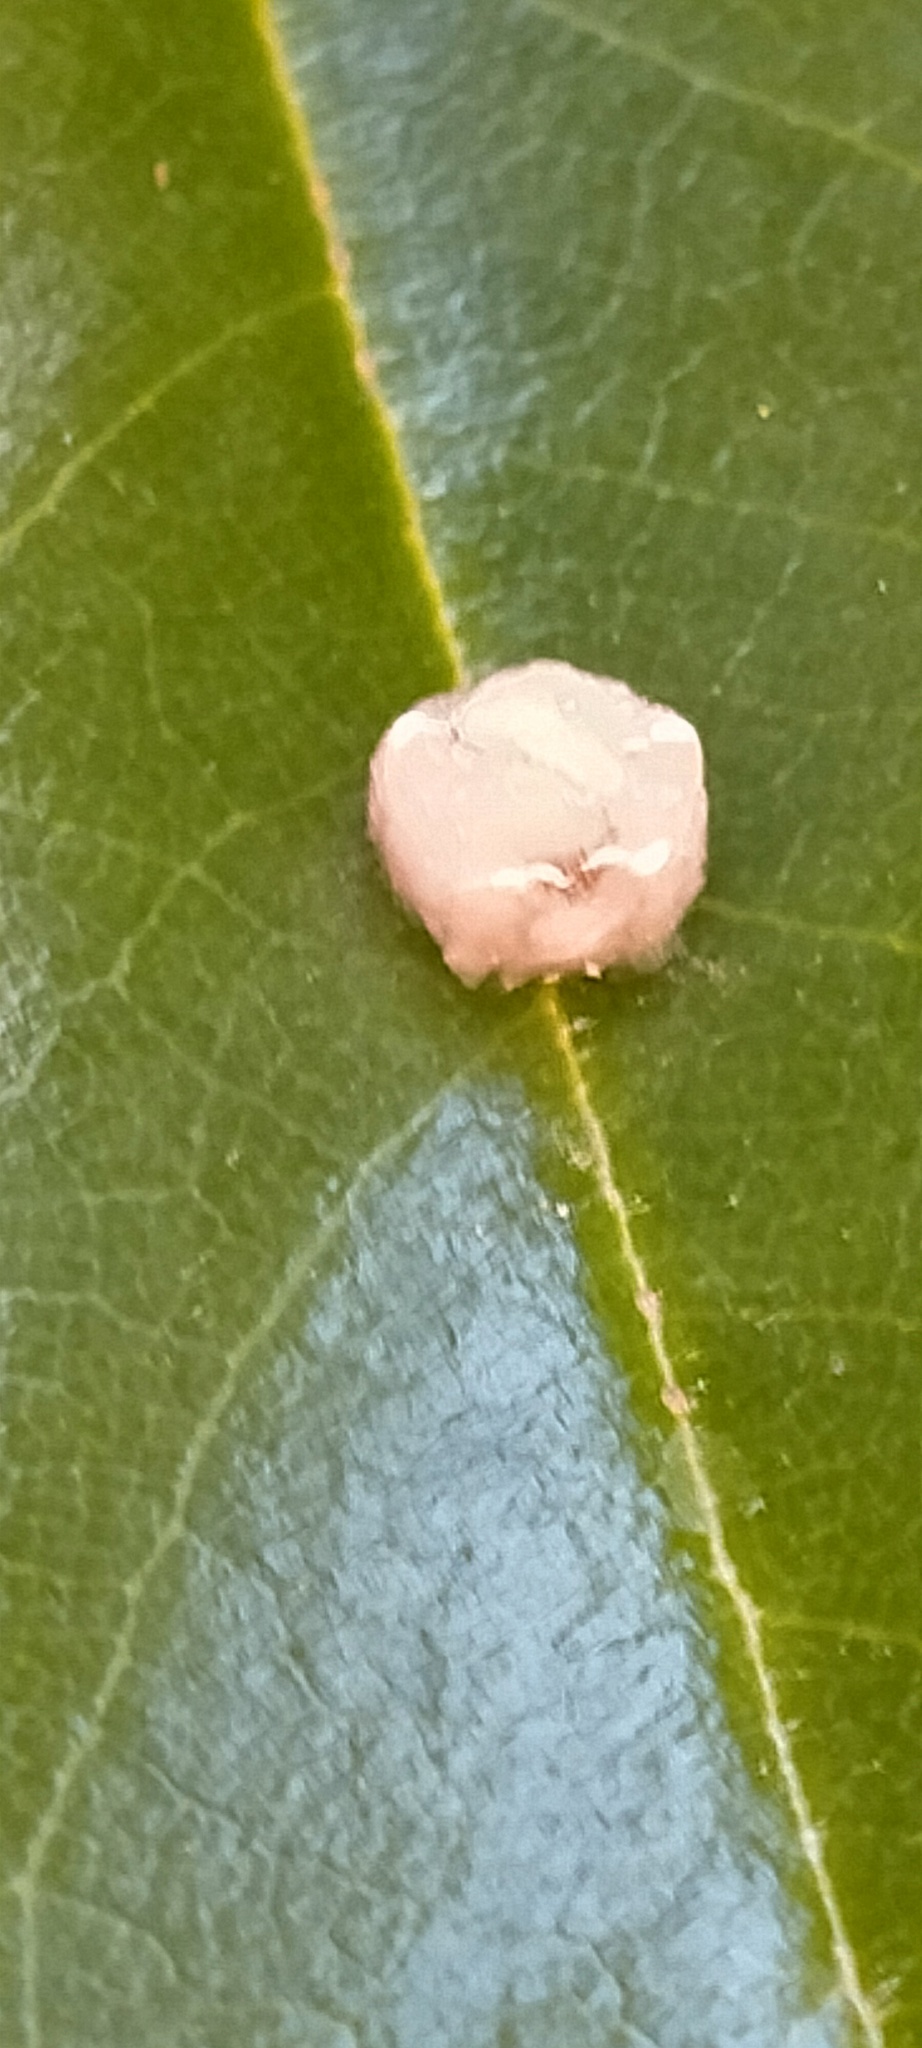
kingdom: Animalia
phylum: Arthropoda
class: Insecta
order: Hemiptera
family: Coccidae
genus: Ceroplastes
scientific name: Ceroplastes rubens
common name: Pink wax scale
